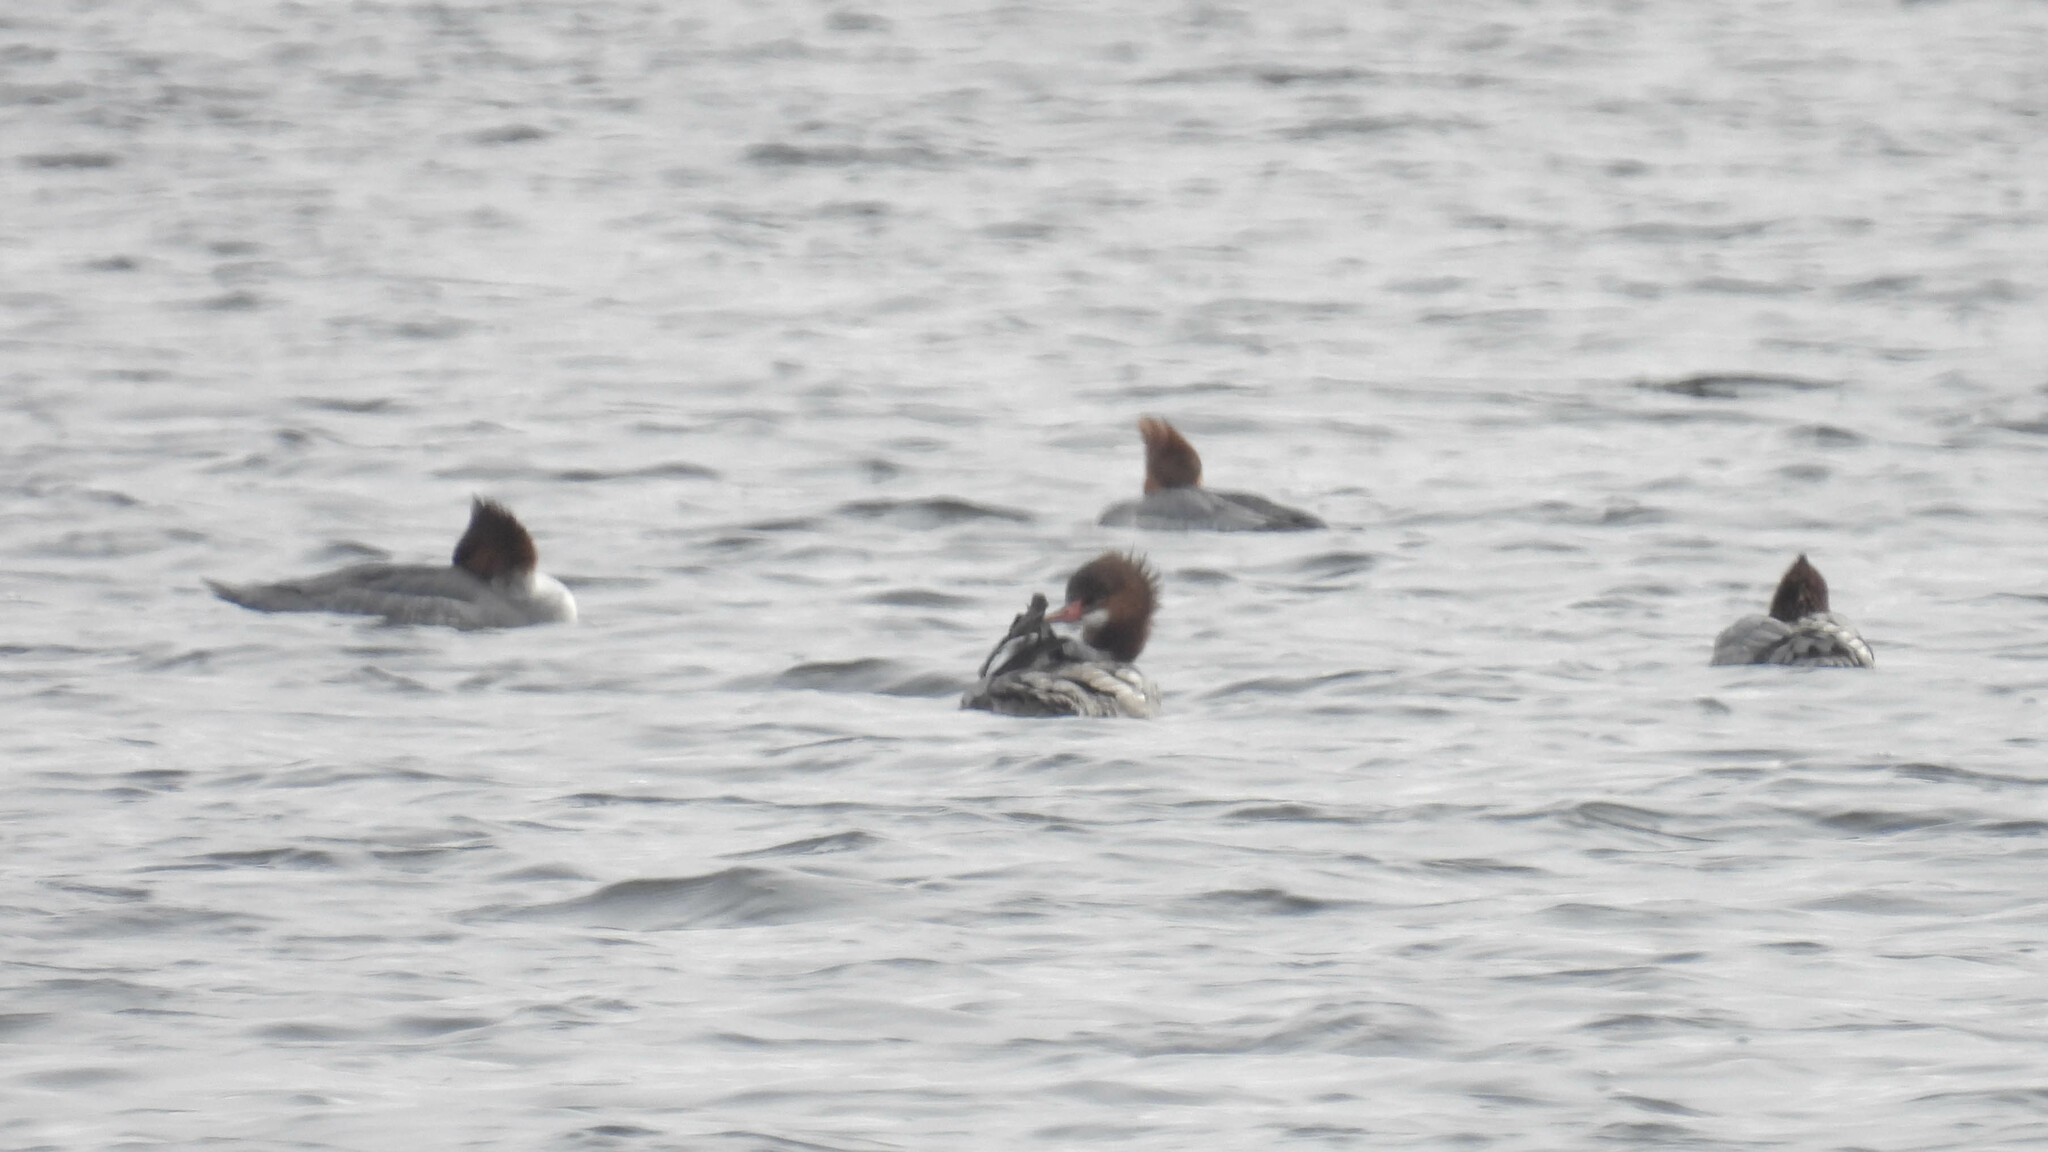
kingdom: Animalia
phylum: Chordata
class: Aves
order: Anseriformes
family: Anatidae
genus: Mergus
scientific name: Mergus merganser
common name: Common merganser
